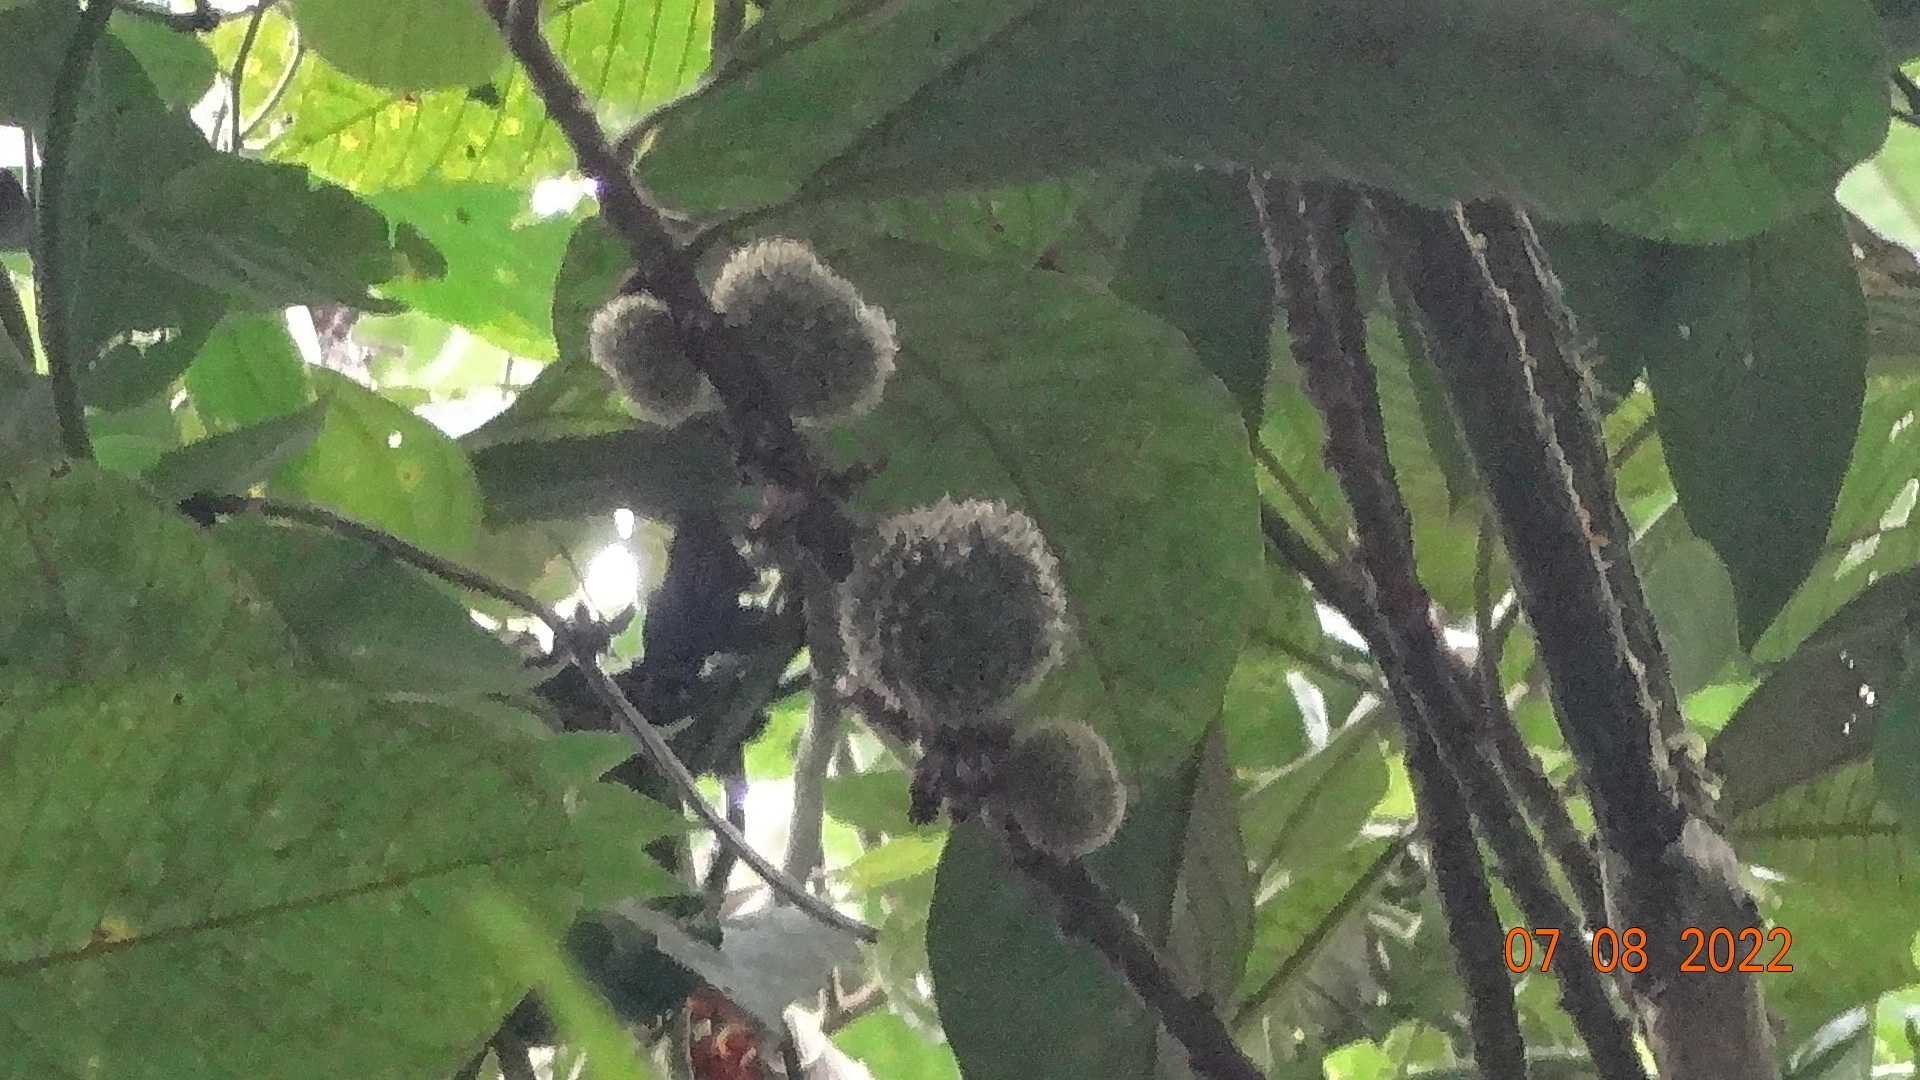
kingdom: Plantae
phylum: Tracheophyta
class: Magnoliopsida
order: Ericales
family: Sapotaceae
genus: Pouteria
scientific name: Pouteria torta
